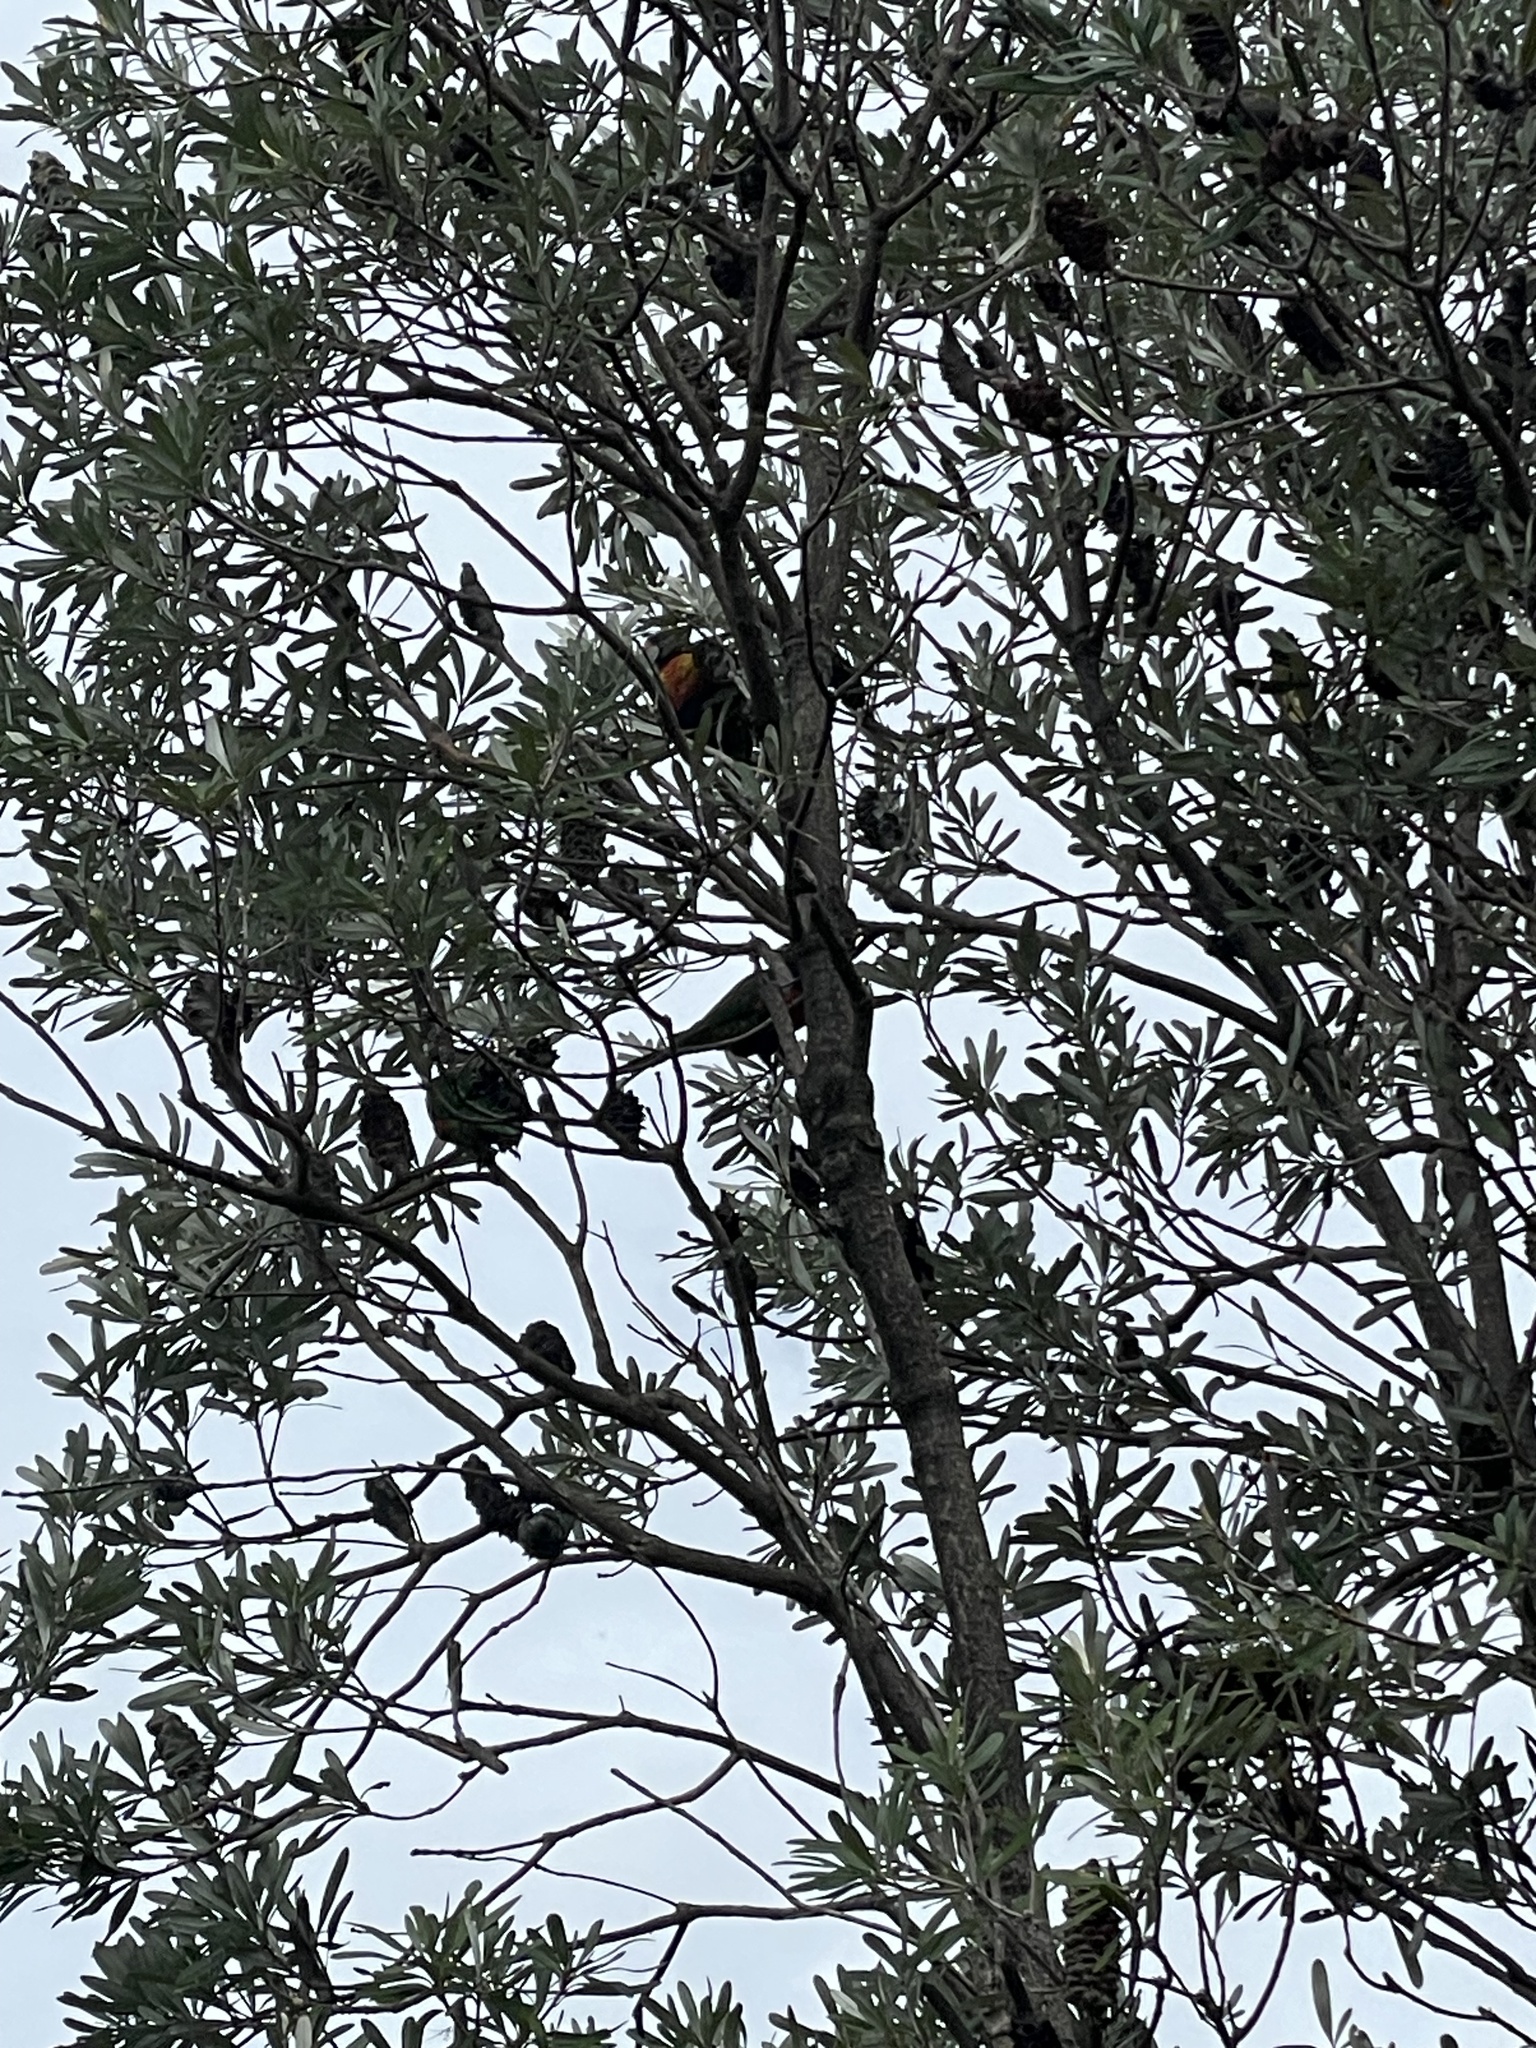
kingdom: Animalia
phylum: Chordata
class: Aves
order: Psittaciformes
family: Psittacidae
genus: Trichoglossus
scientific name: Trichoglossus haematodus
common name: Coconut lorikeet
